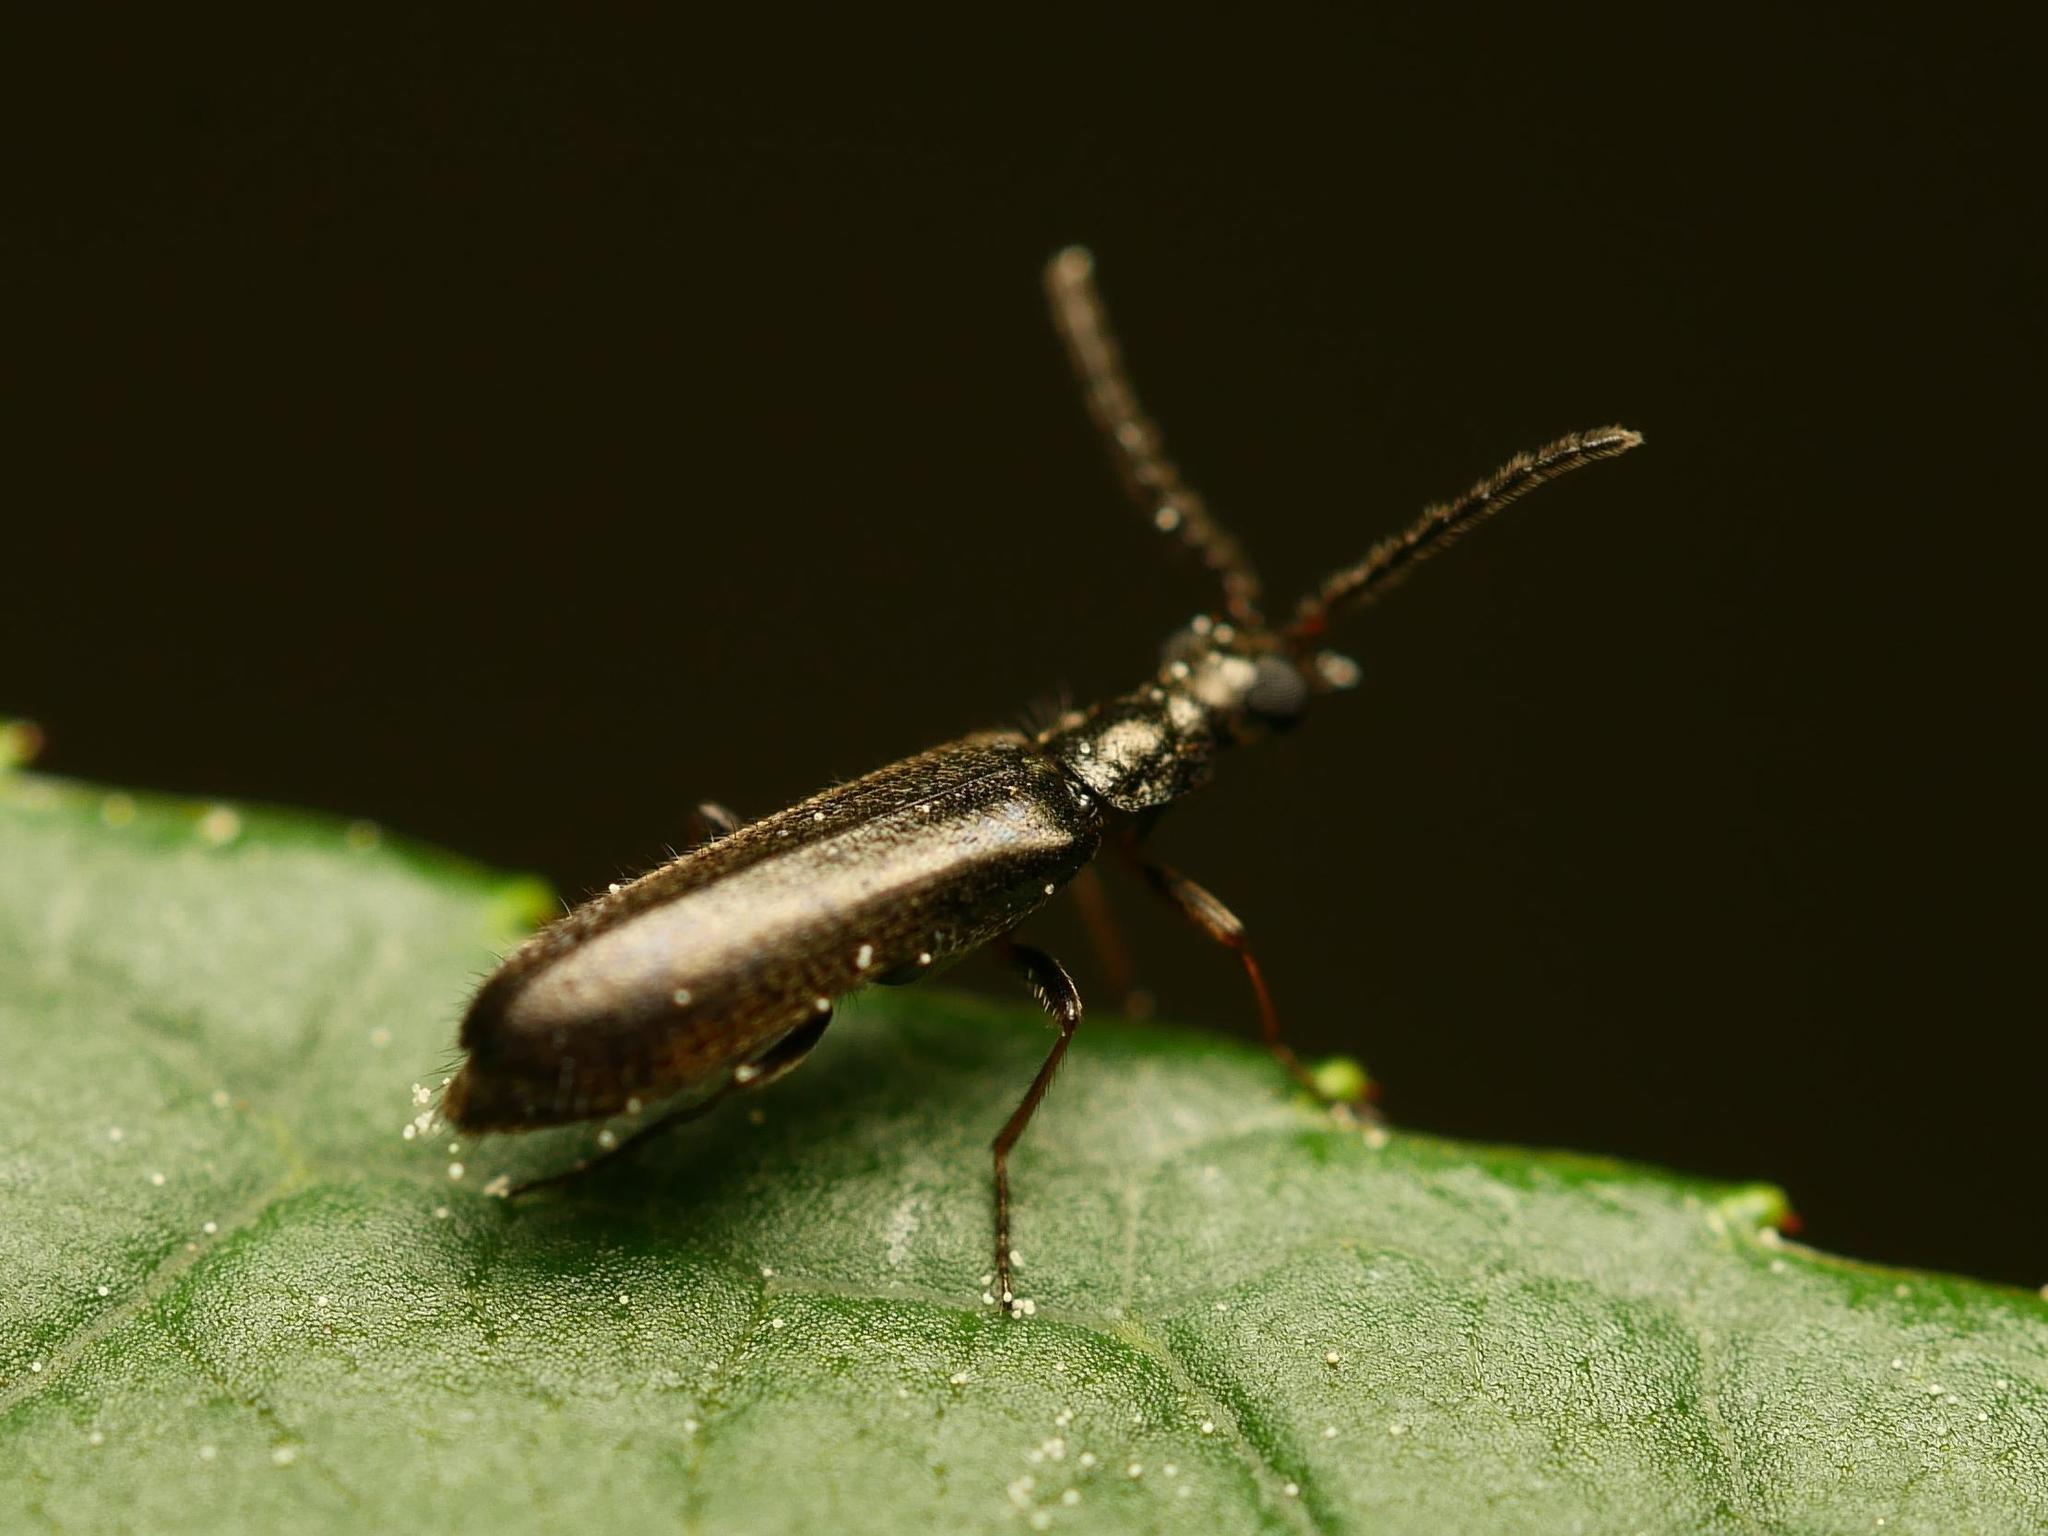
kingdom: Animalia
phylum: Arthropoda
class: Insecta
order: Coleoptera
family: Melyridae
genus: Dasytes
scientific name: Dasytes plumbeus
